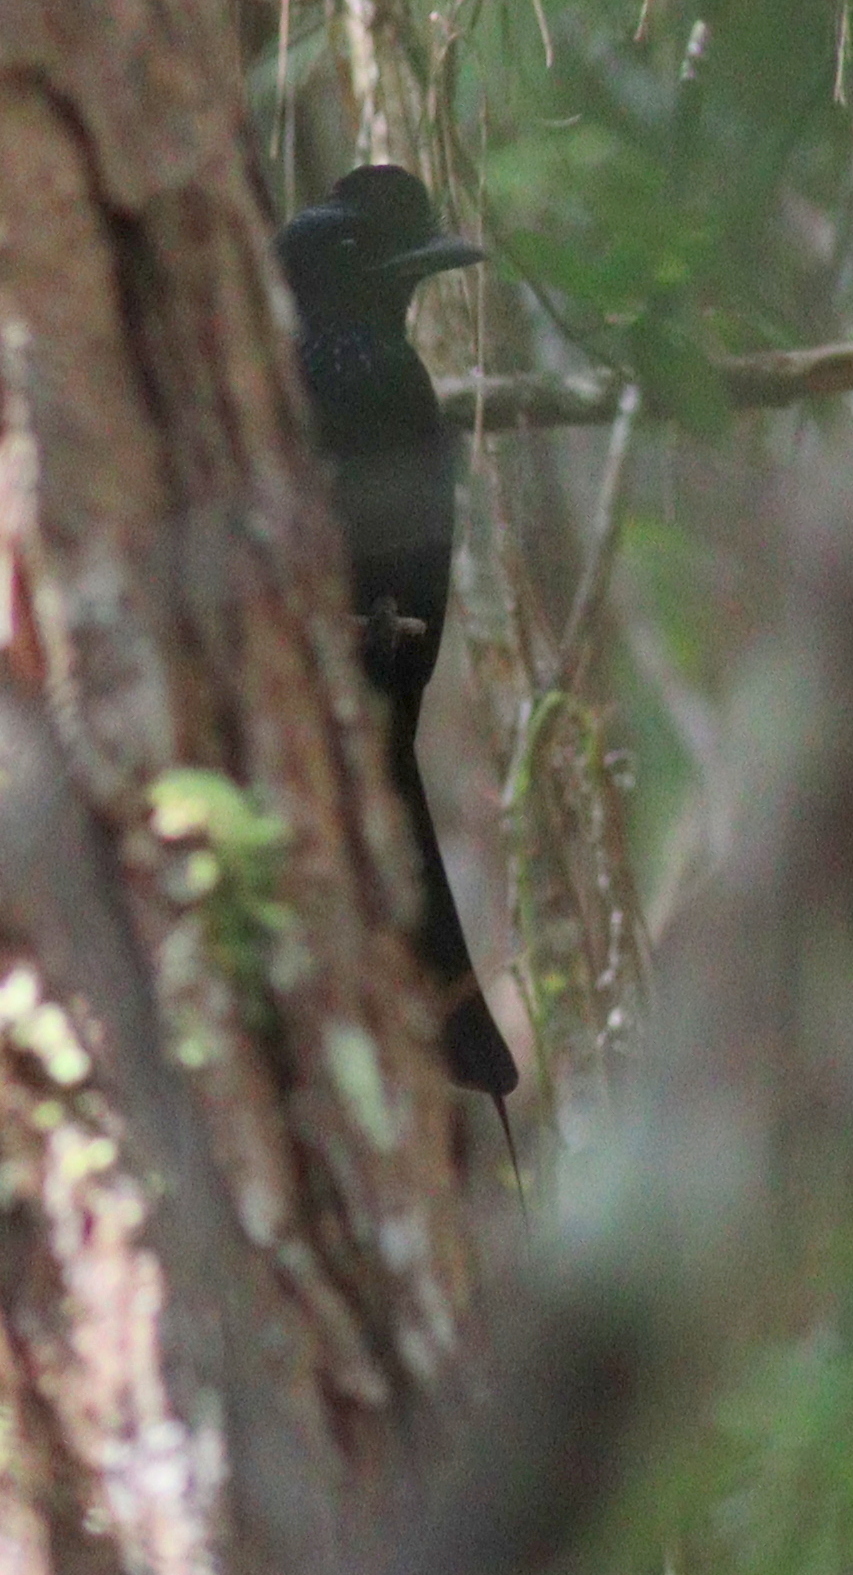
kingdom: Animalia
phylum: Chordata
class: Aves
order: Passeriformes
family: Dicruridae
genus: Dicrurus
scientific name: Dicrurus paradiseus
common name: Greater racket-tailed drongo
